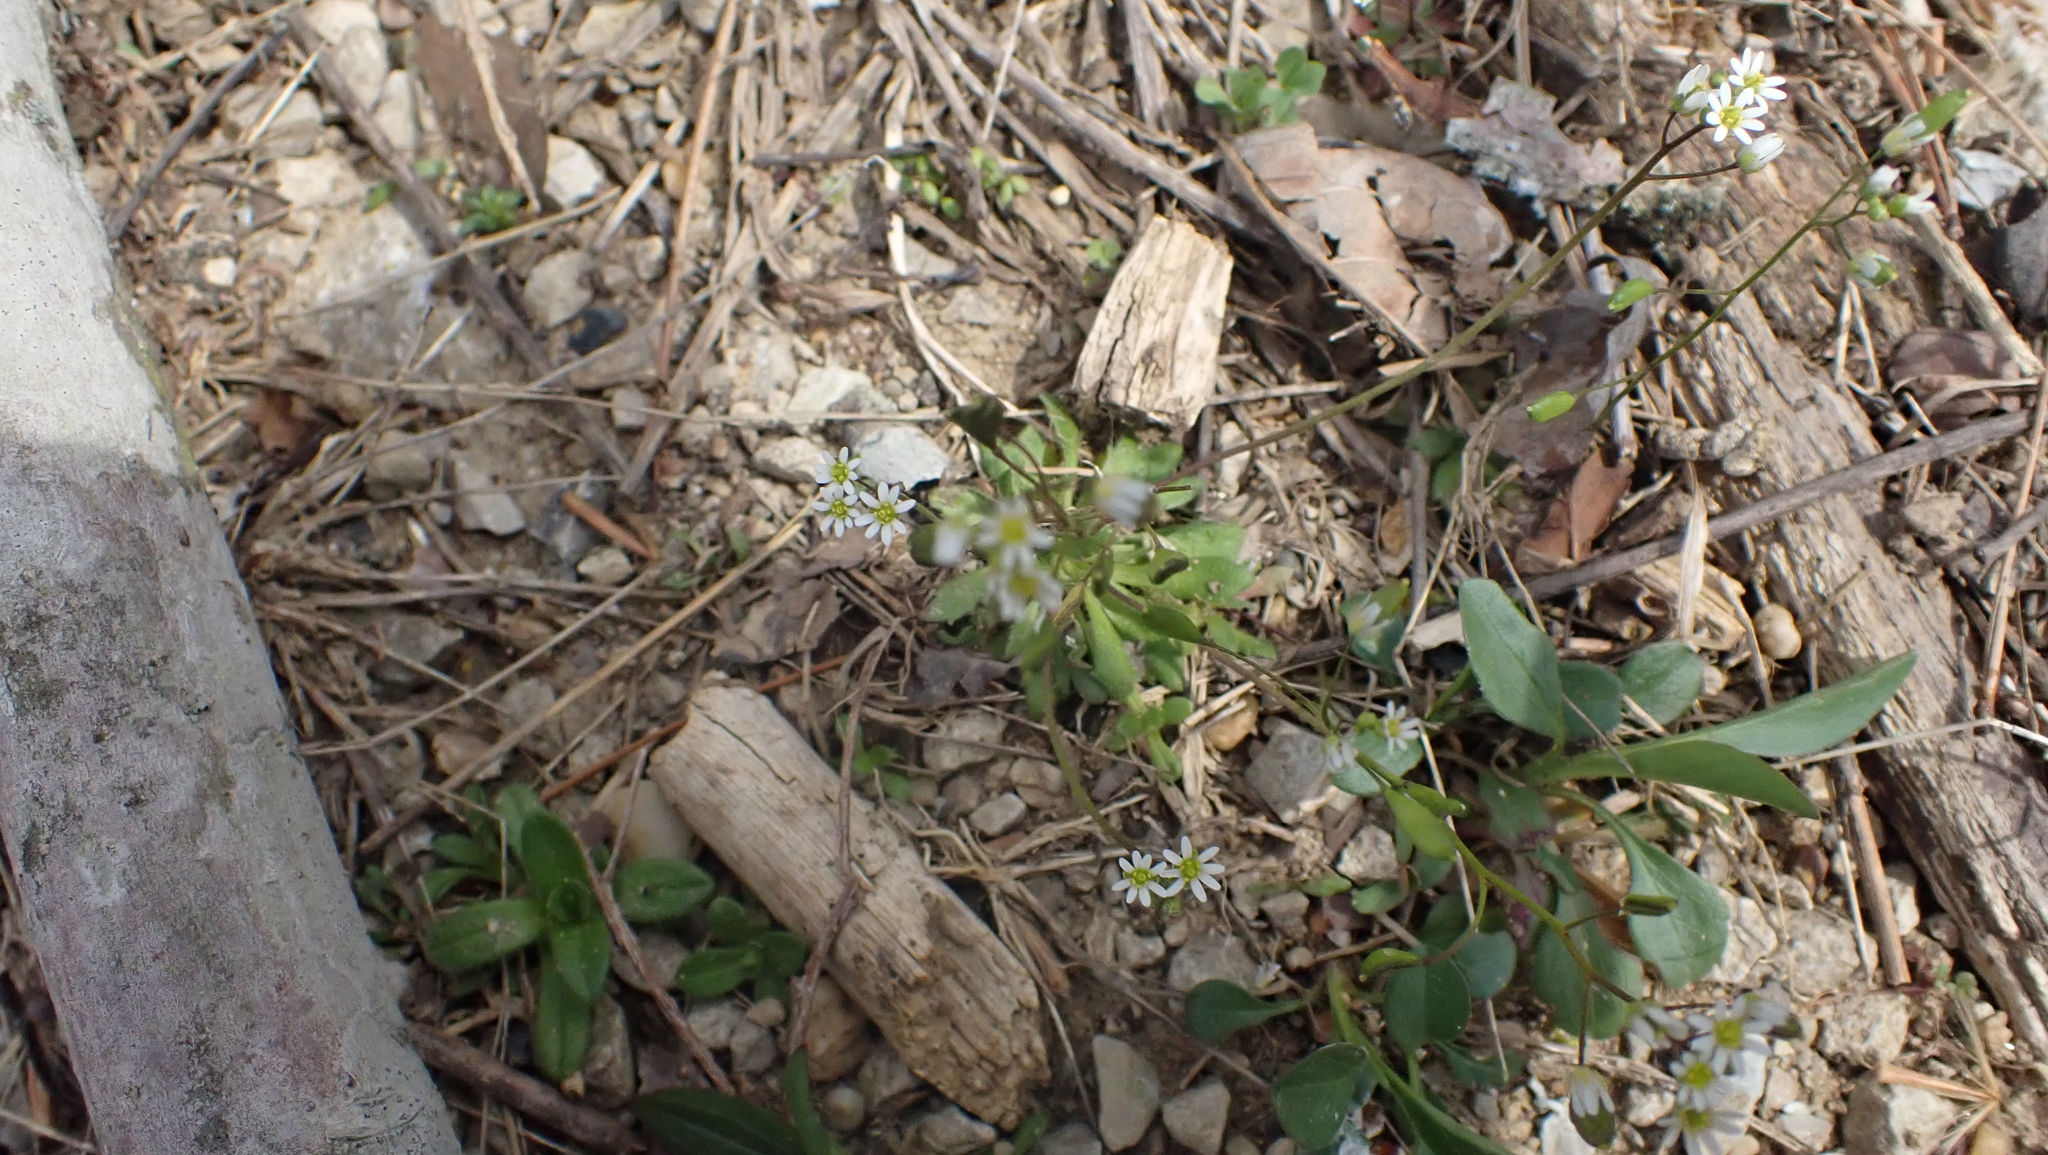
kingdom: Plantae
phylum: Tracheophyta
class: Magnoliopsida
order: Brassicales
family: Brassicaceae
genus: Draba
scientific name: Draba verna
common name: Spring draba
